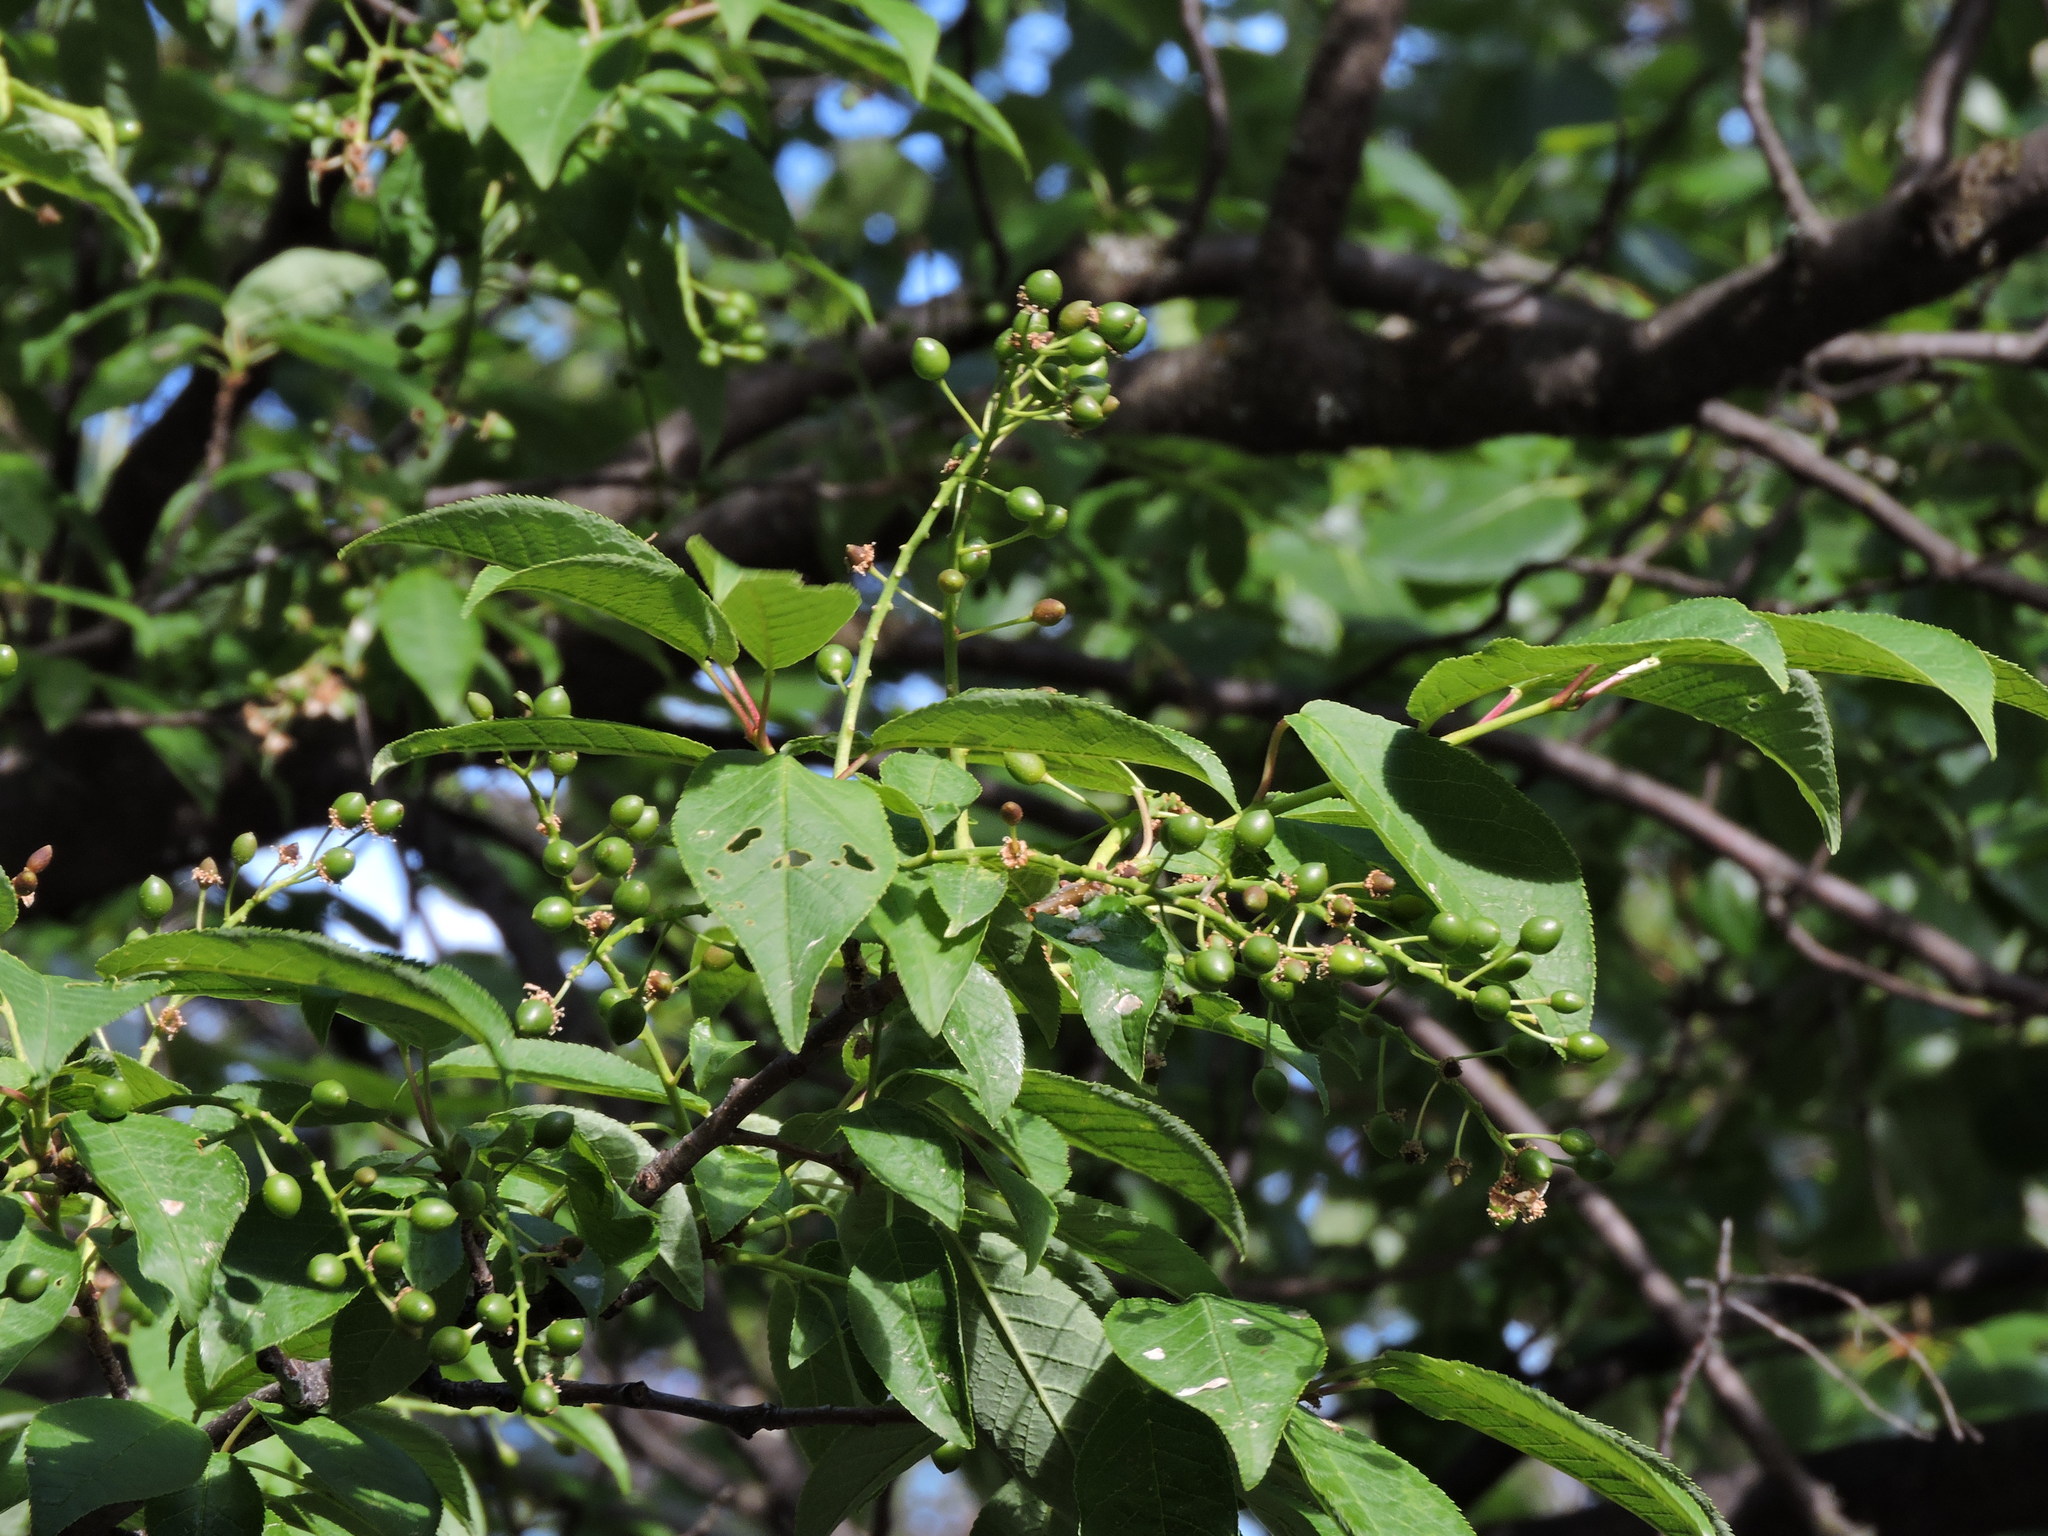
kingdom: Plantae
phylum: Tracheophyta
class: Magnoliopsida
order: Rosales
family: Rosaceae
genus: Prunus
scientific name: Prunus virginiana
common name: Chokecherry
